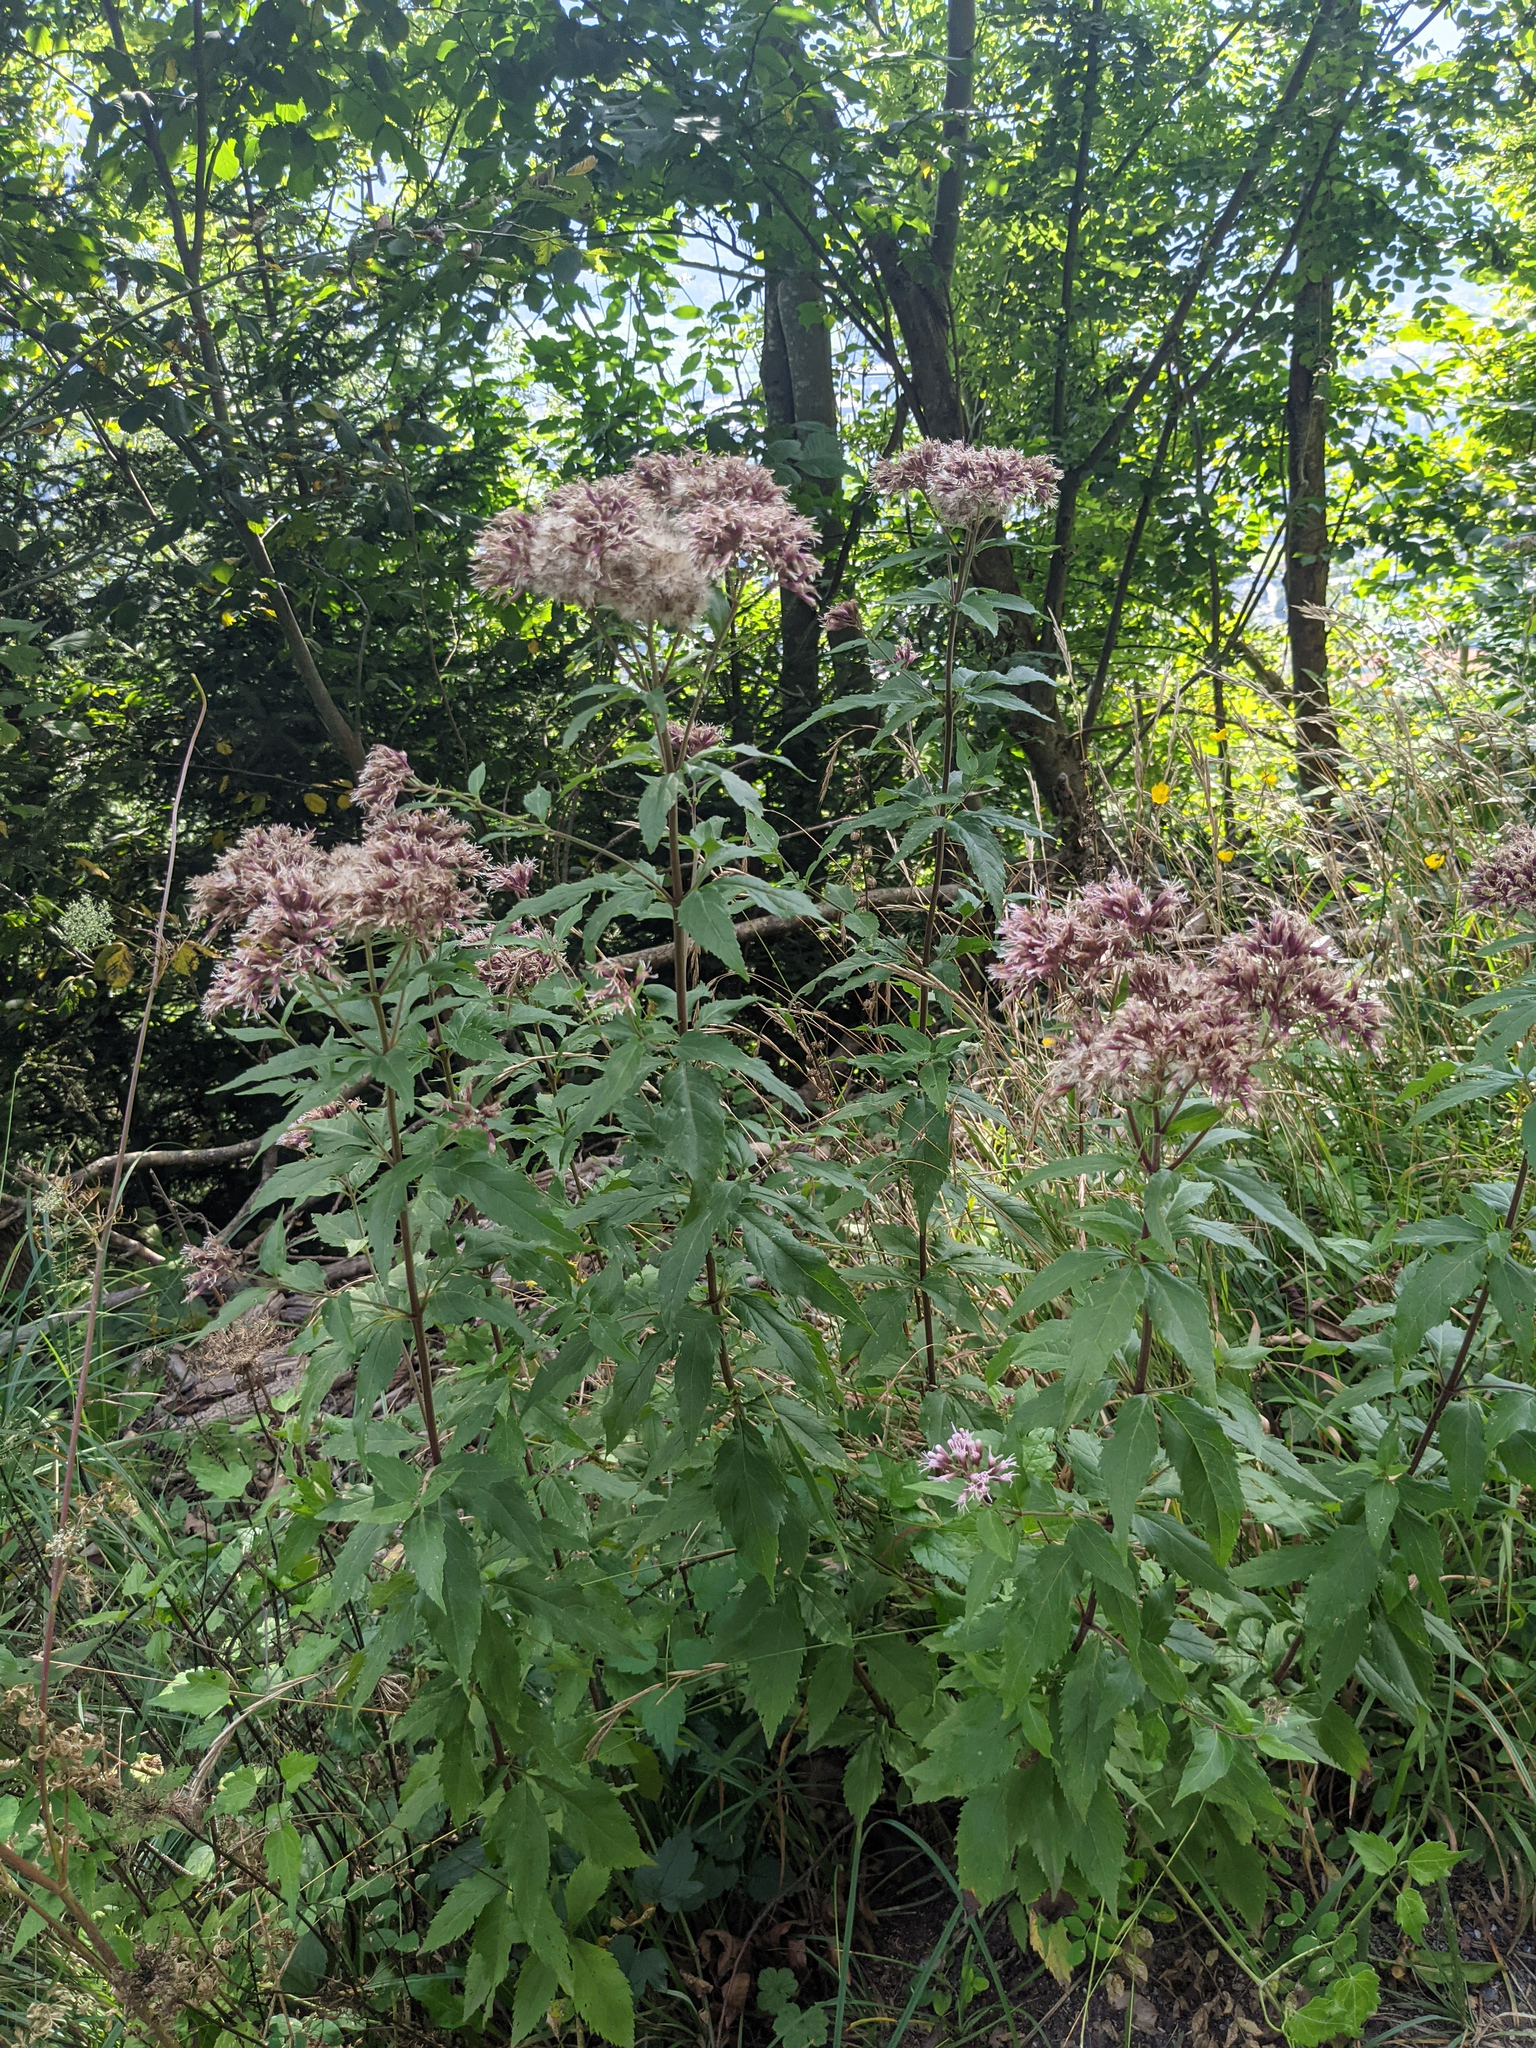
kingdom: Plantae
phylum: Tracheophyta
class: Magnoliopsida
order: Asterales
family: Asteraceae
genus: Eupatorium
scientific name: Eupatorium cannabinum
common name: Hemp-agrimony
